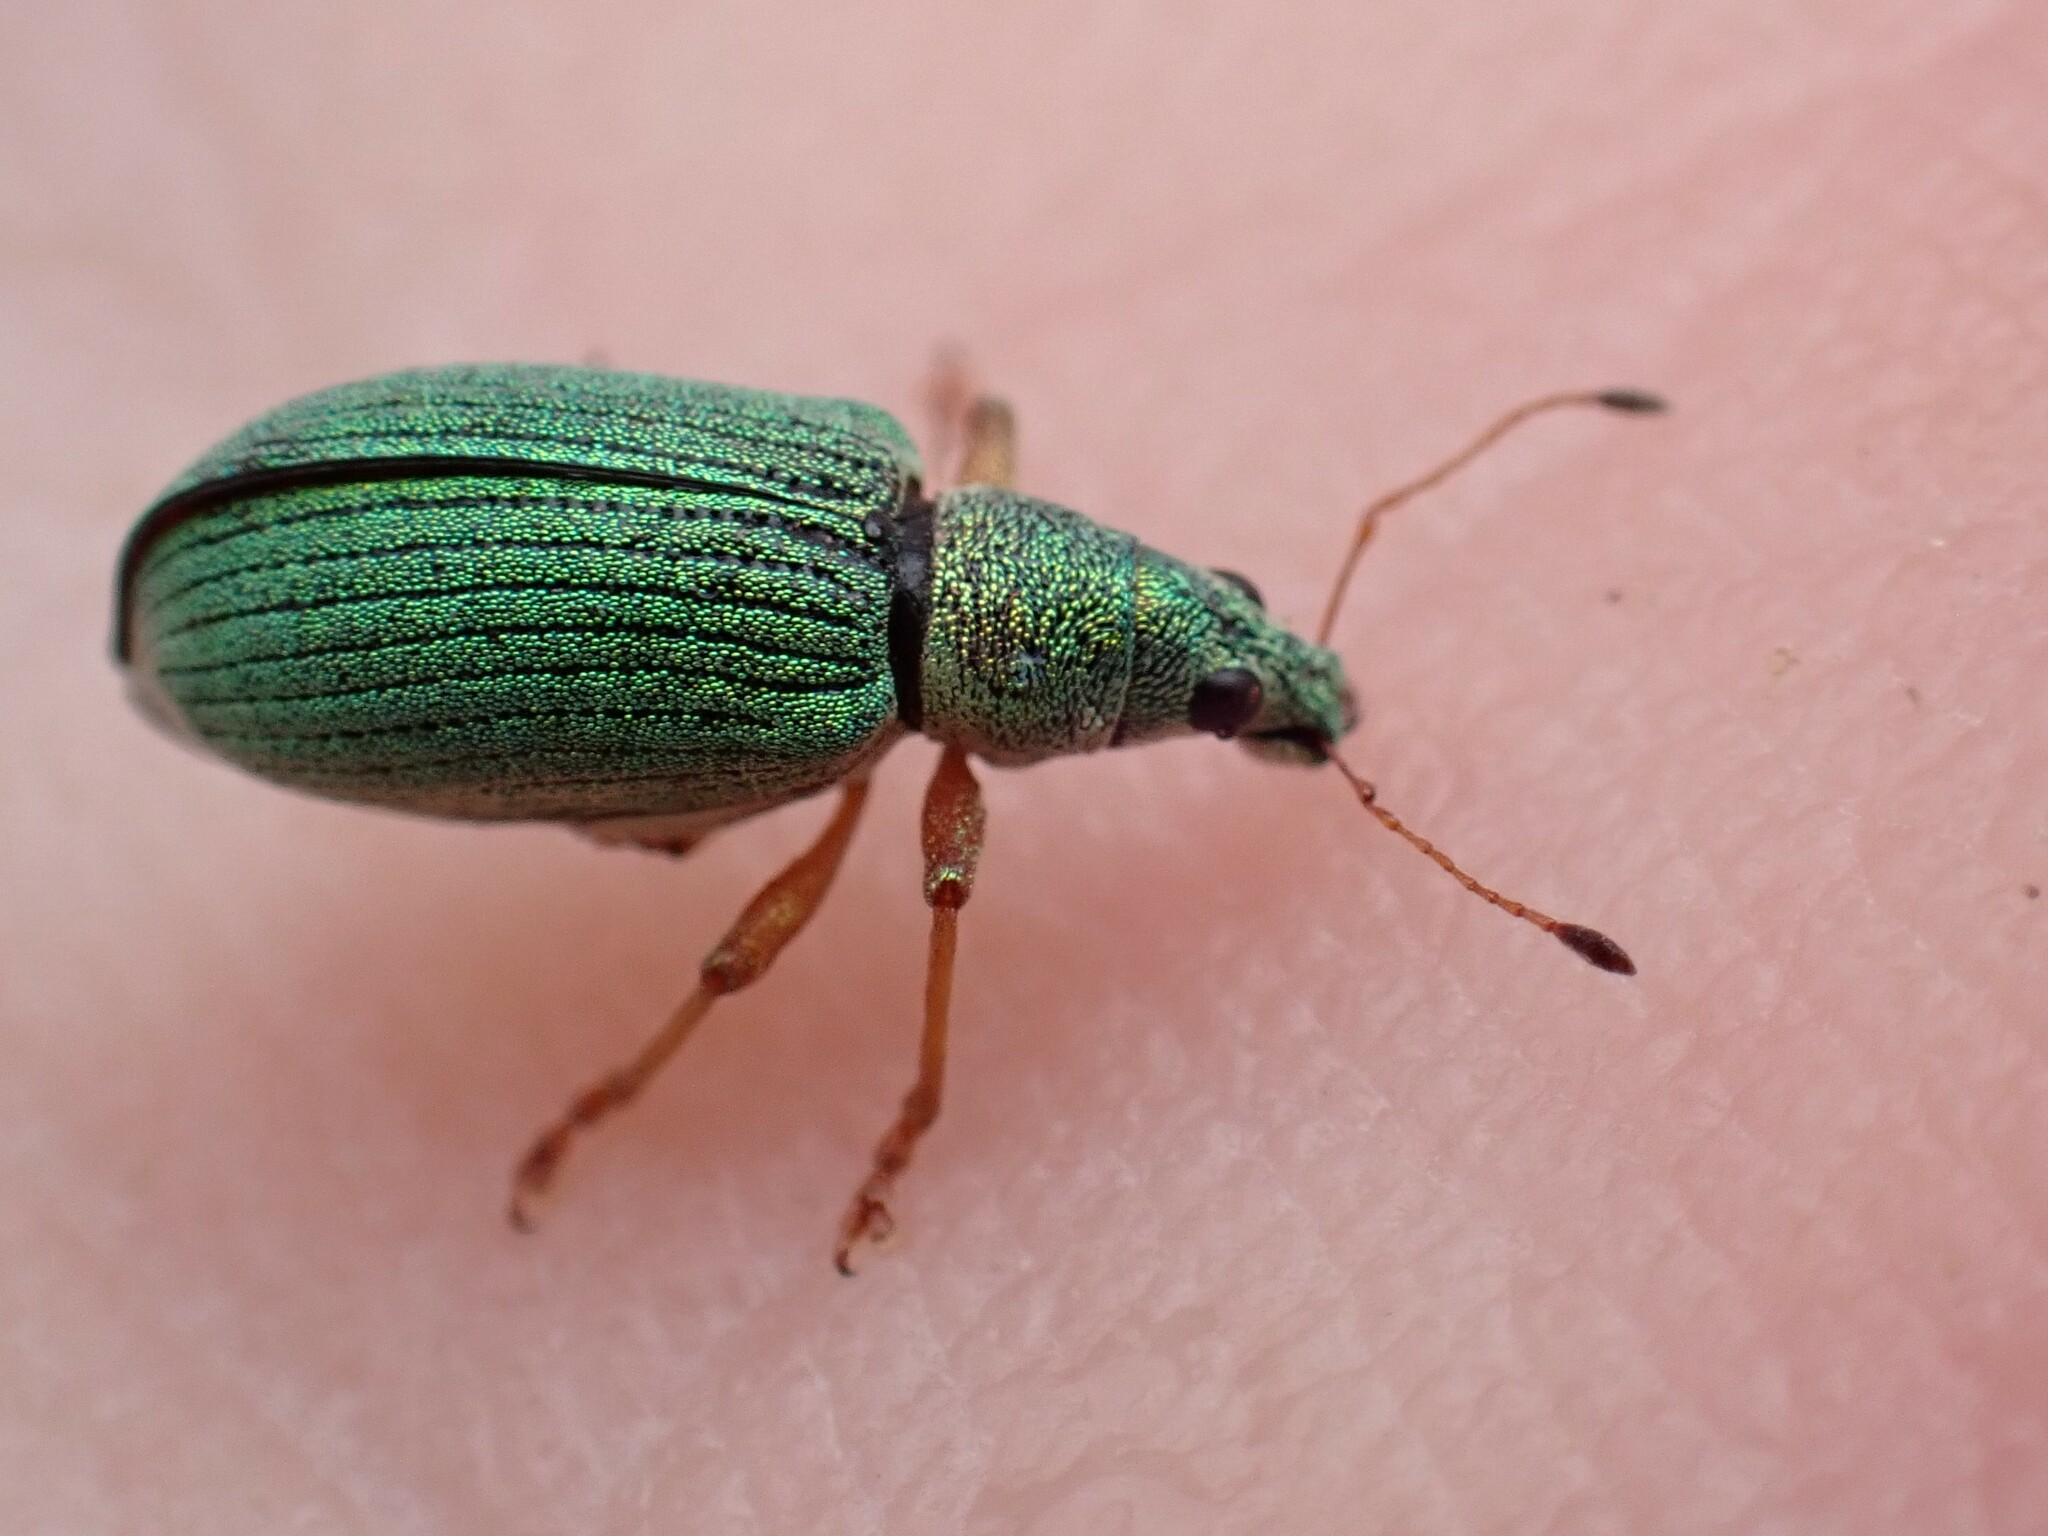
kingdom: Animalia
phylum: Arthropoda
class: Insecta
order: Coleoptera
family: Curculionidae
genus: Polydrusus
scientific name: Polydrusus formosus
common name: Weevil
